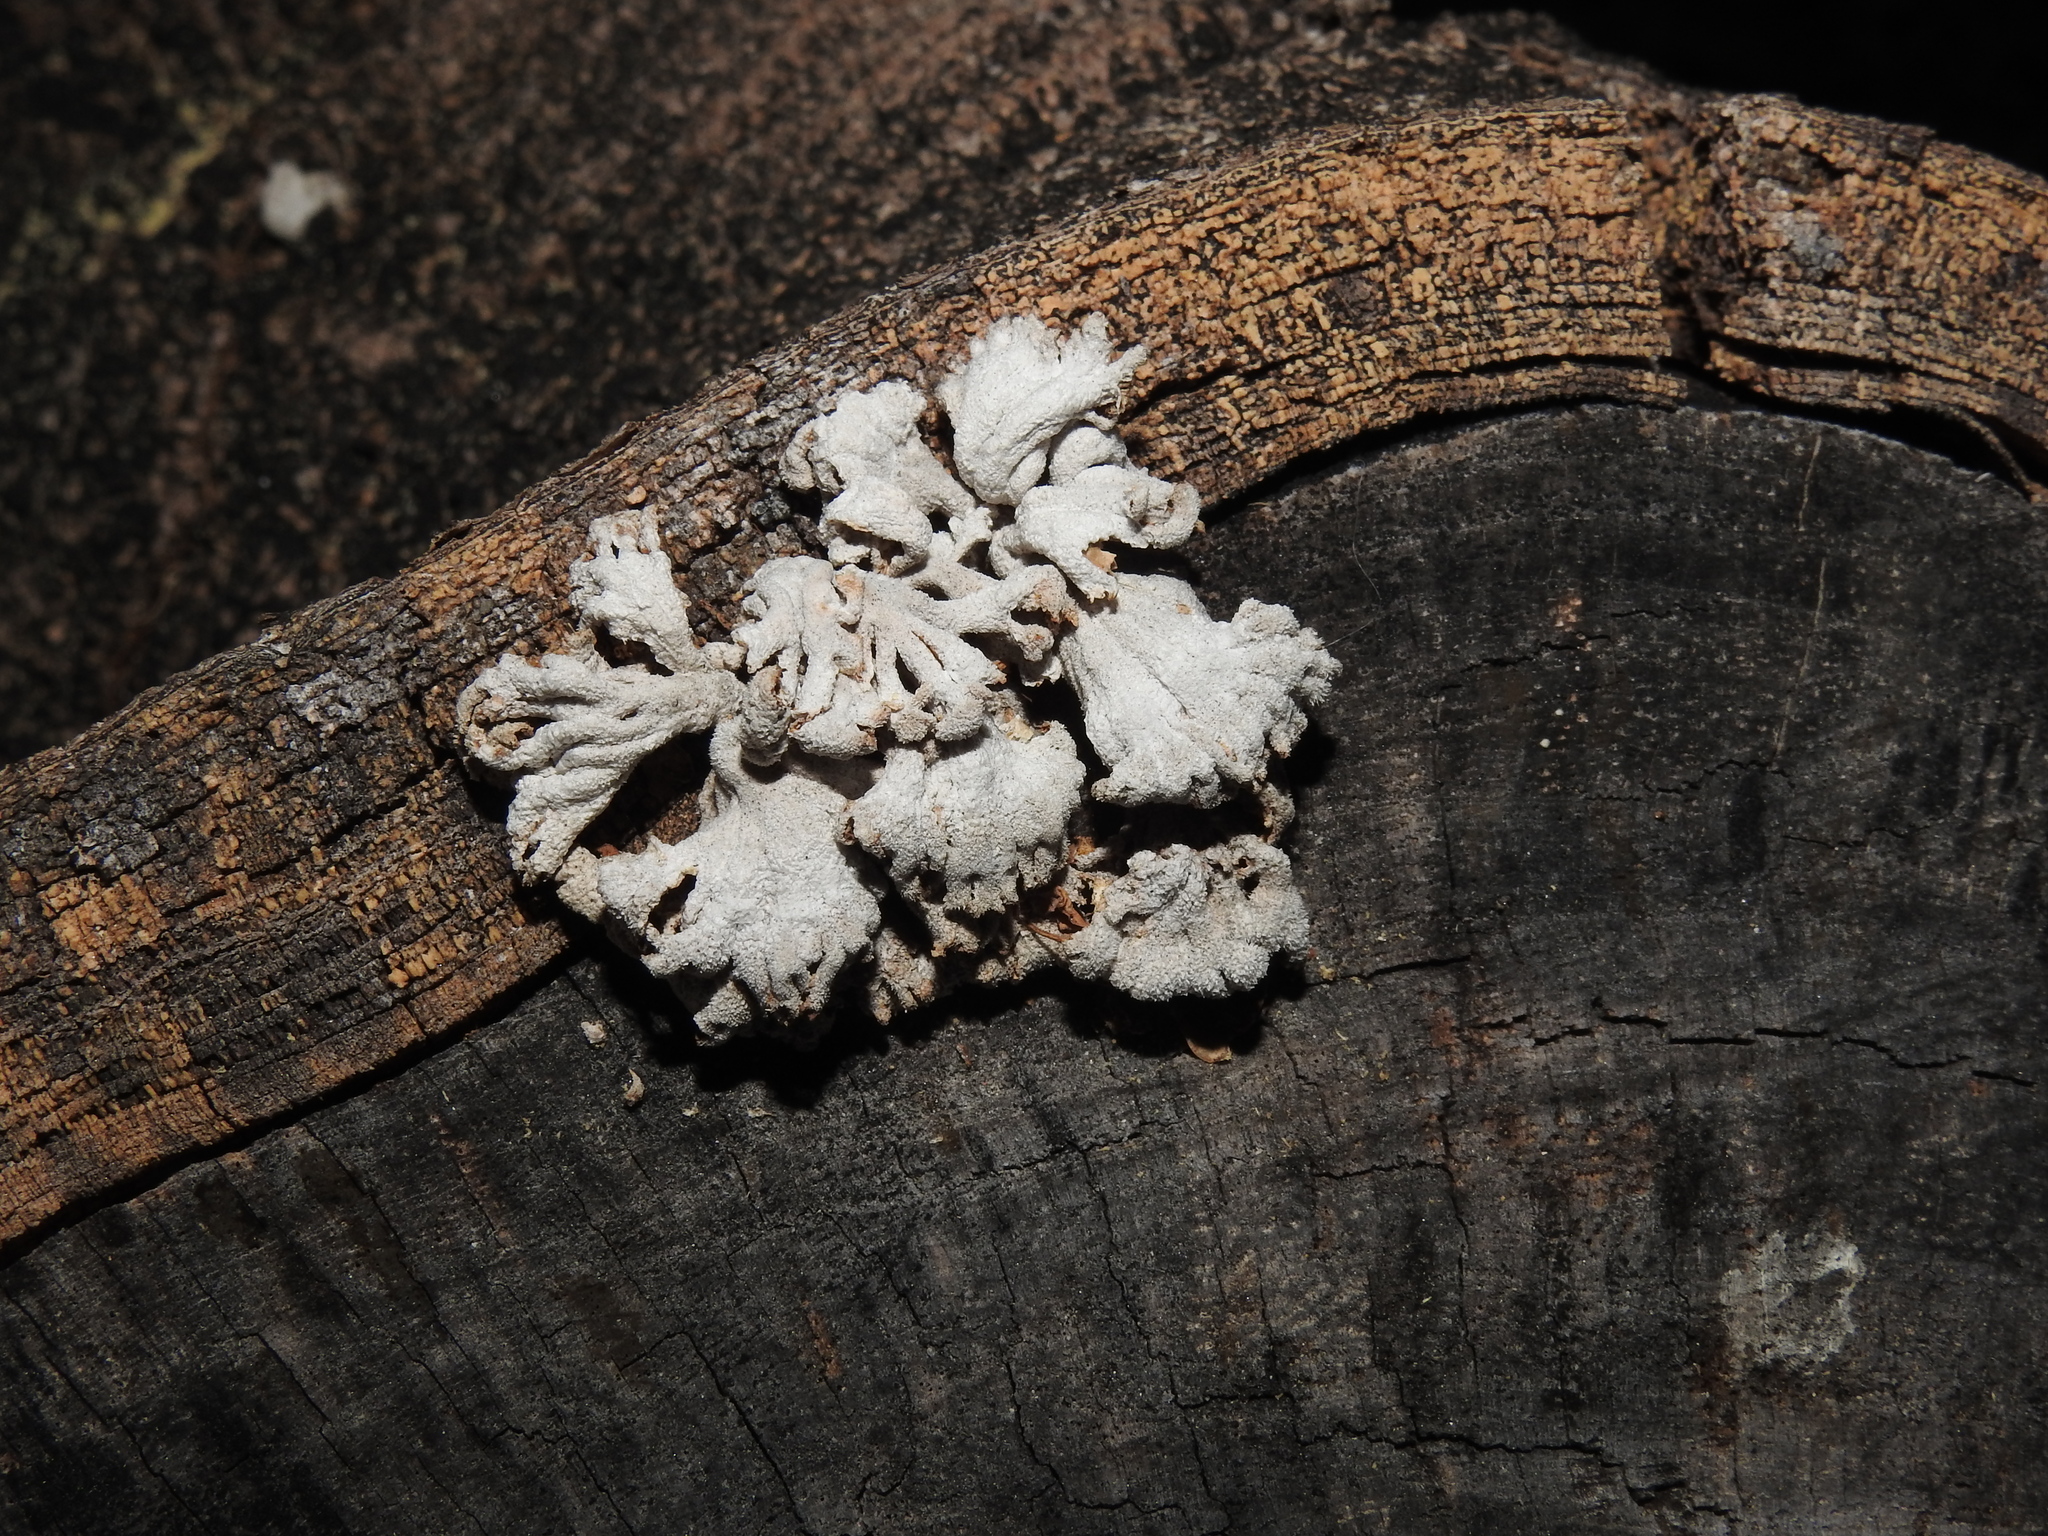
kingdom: Fungi
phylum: Basidiomycota
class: Agaricomycetes
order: Agaricales
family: Schizophyllaceae
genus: Schizophyllum
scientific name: Schizophyllum commune
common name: Common porecrust
